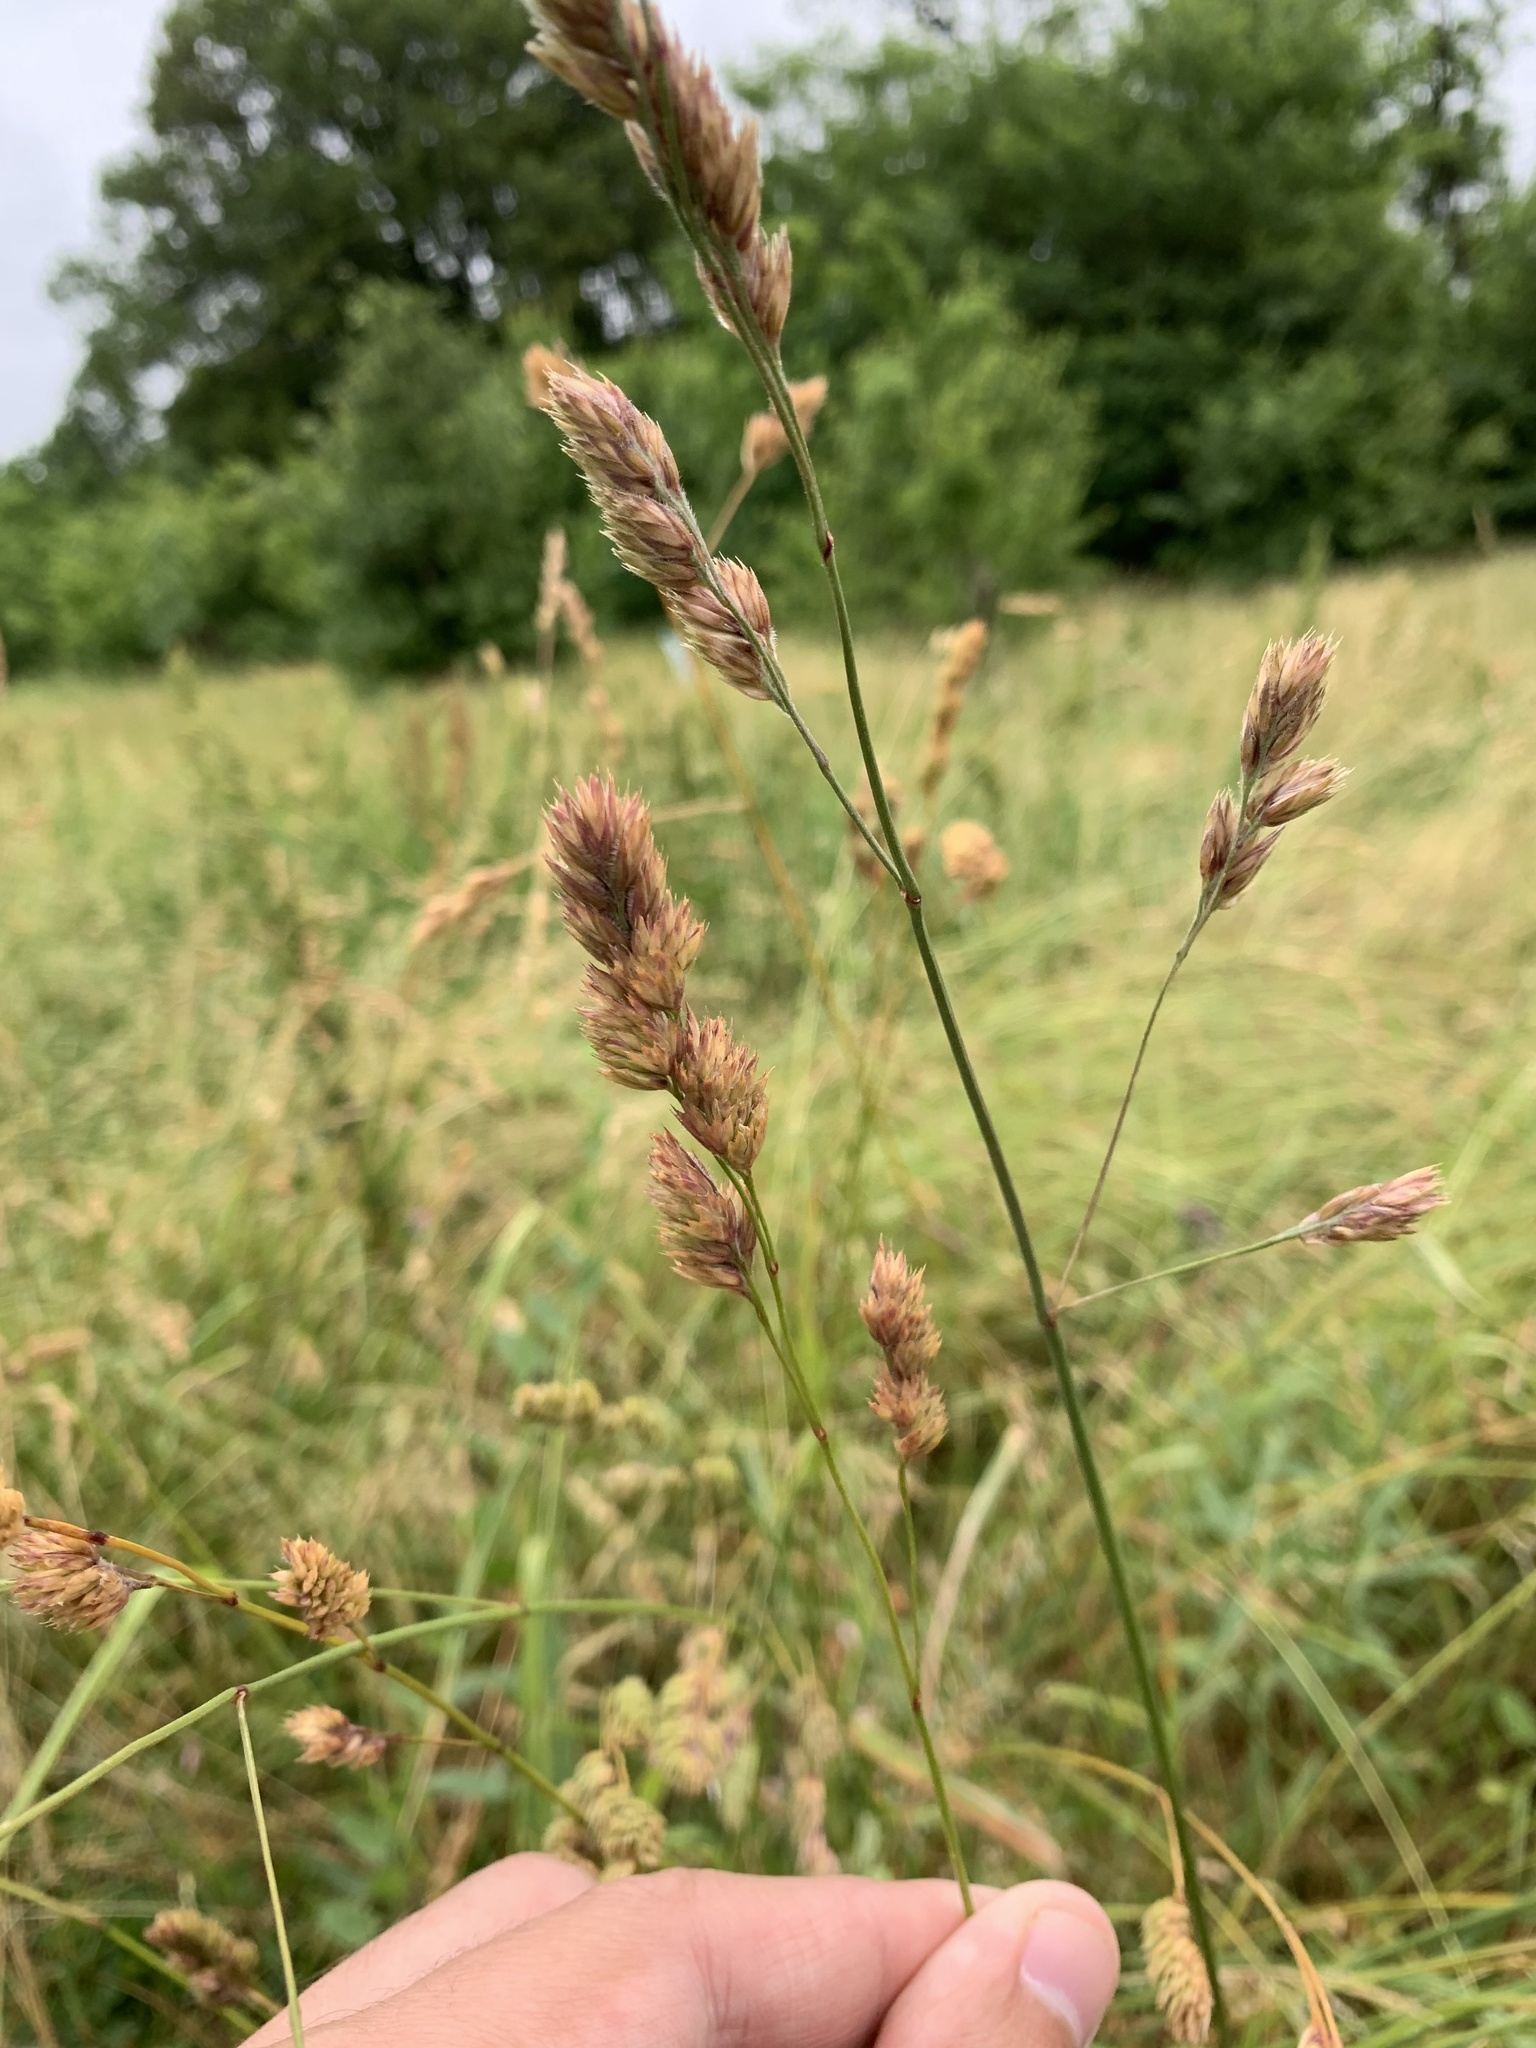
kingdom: Plantae
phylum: Tracheophyta
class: Liliopsida
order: Poales
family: Poaceae
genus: Dactylis
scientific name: Dactylis glomerata
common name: Orchardgrass
